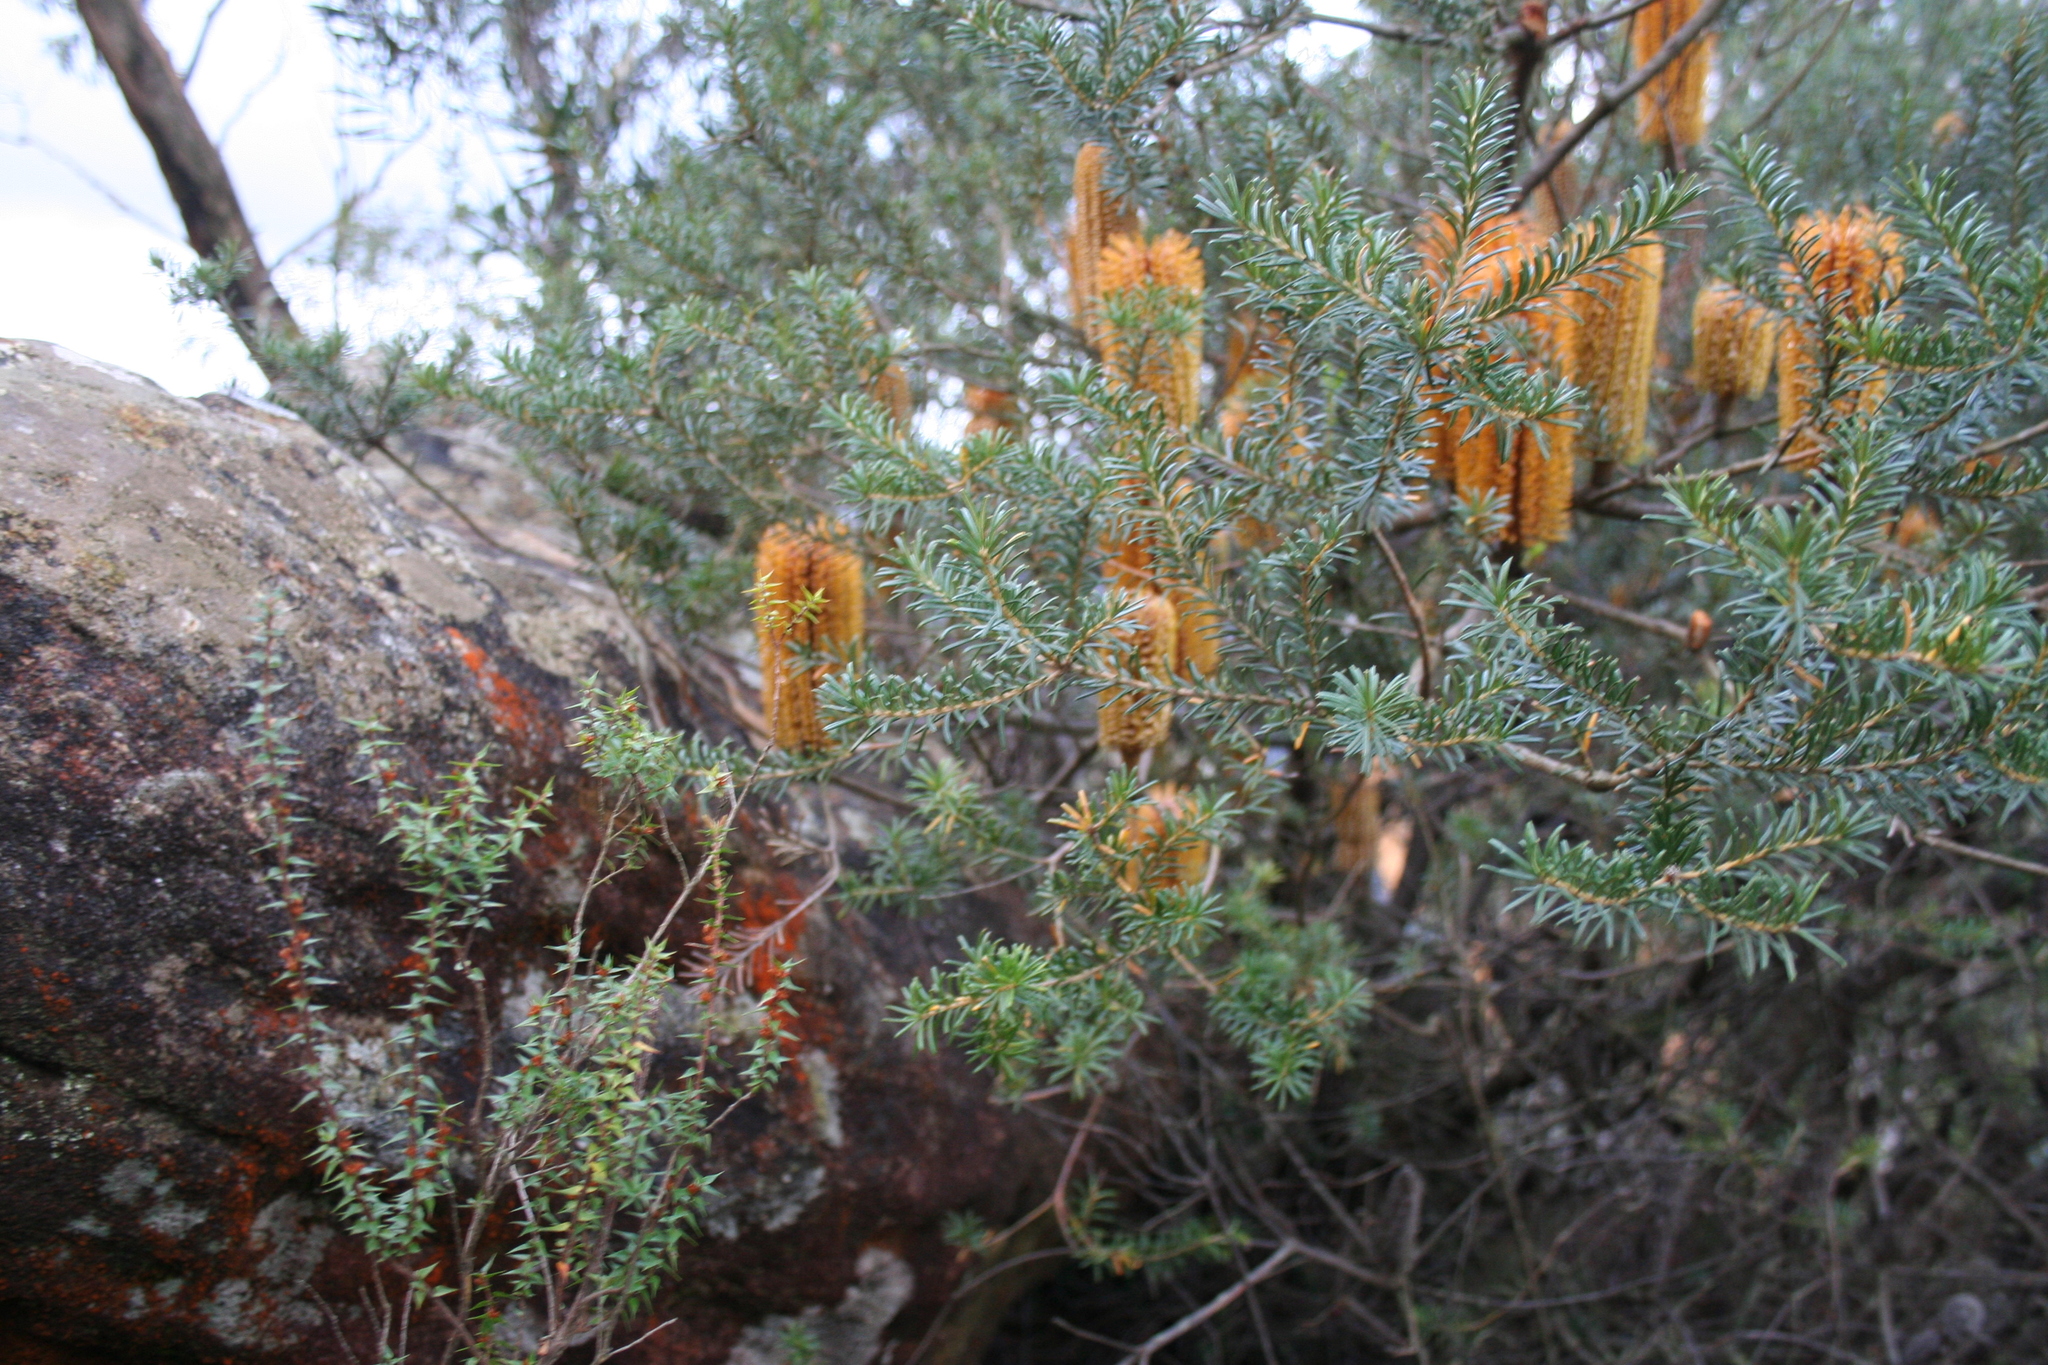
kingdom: Plantae
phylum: Tracheophyta
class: Magnoliopsida
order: Proteales
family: Proteaceae
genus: Banksia
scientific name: Banksia ericifolia
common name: Heath-leaf banksia
